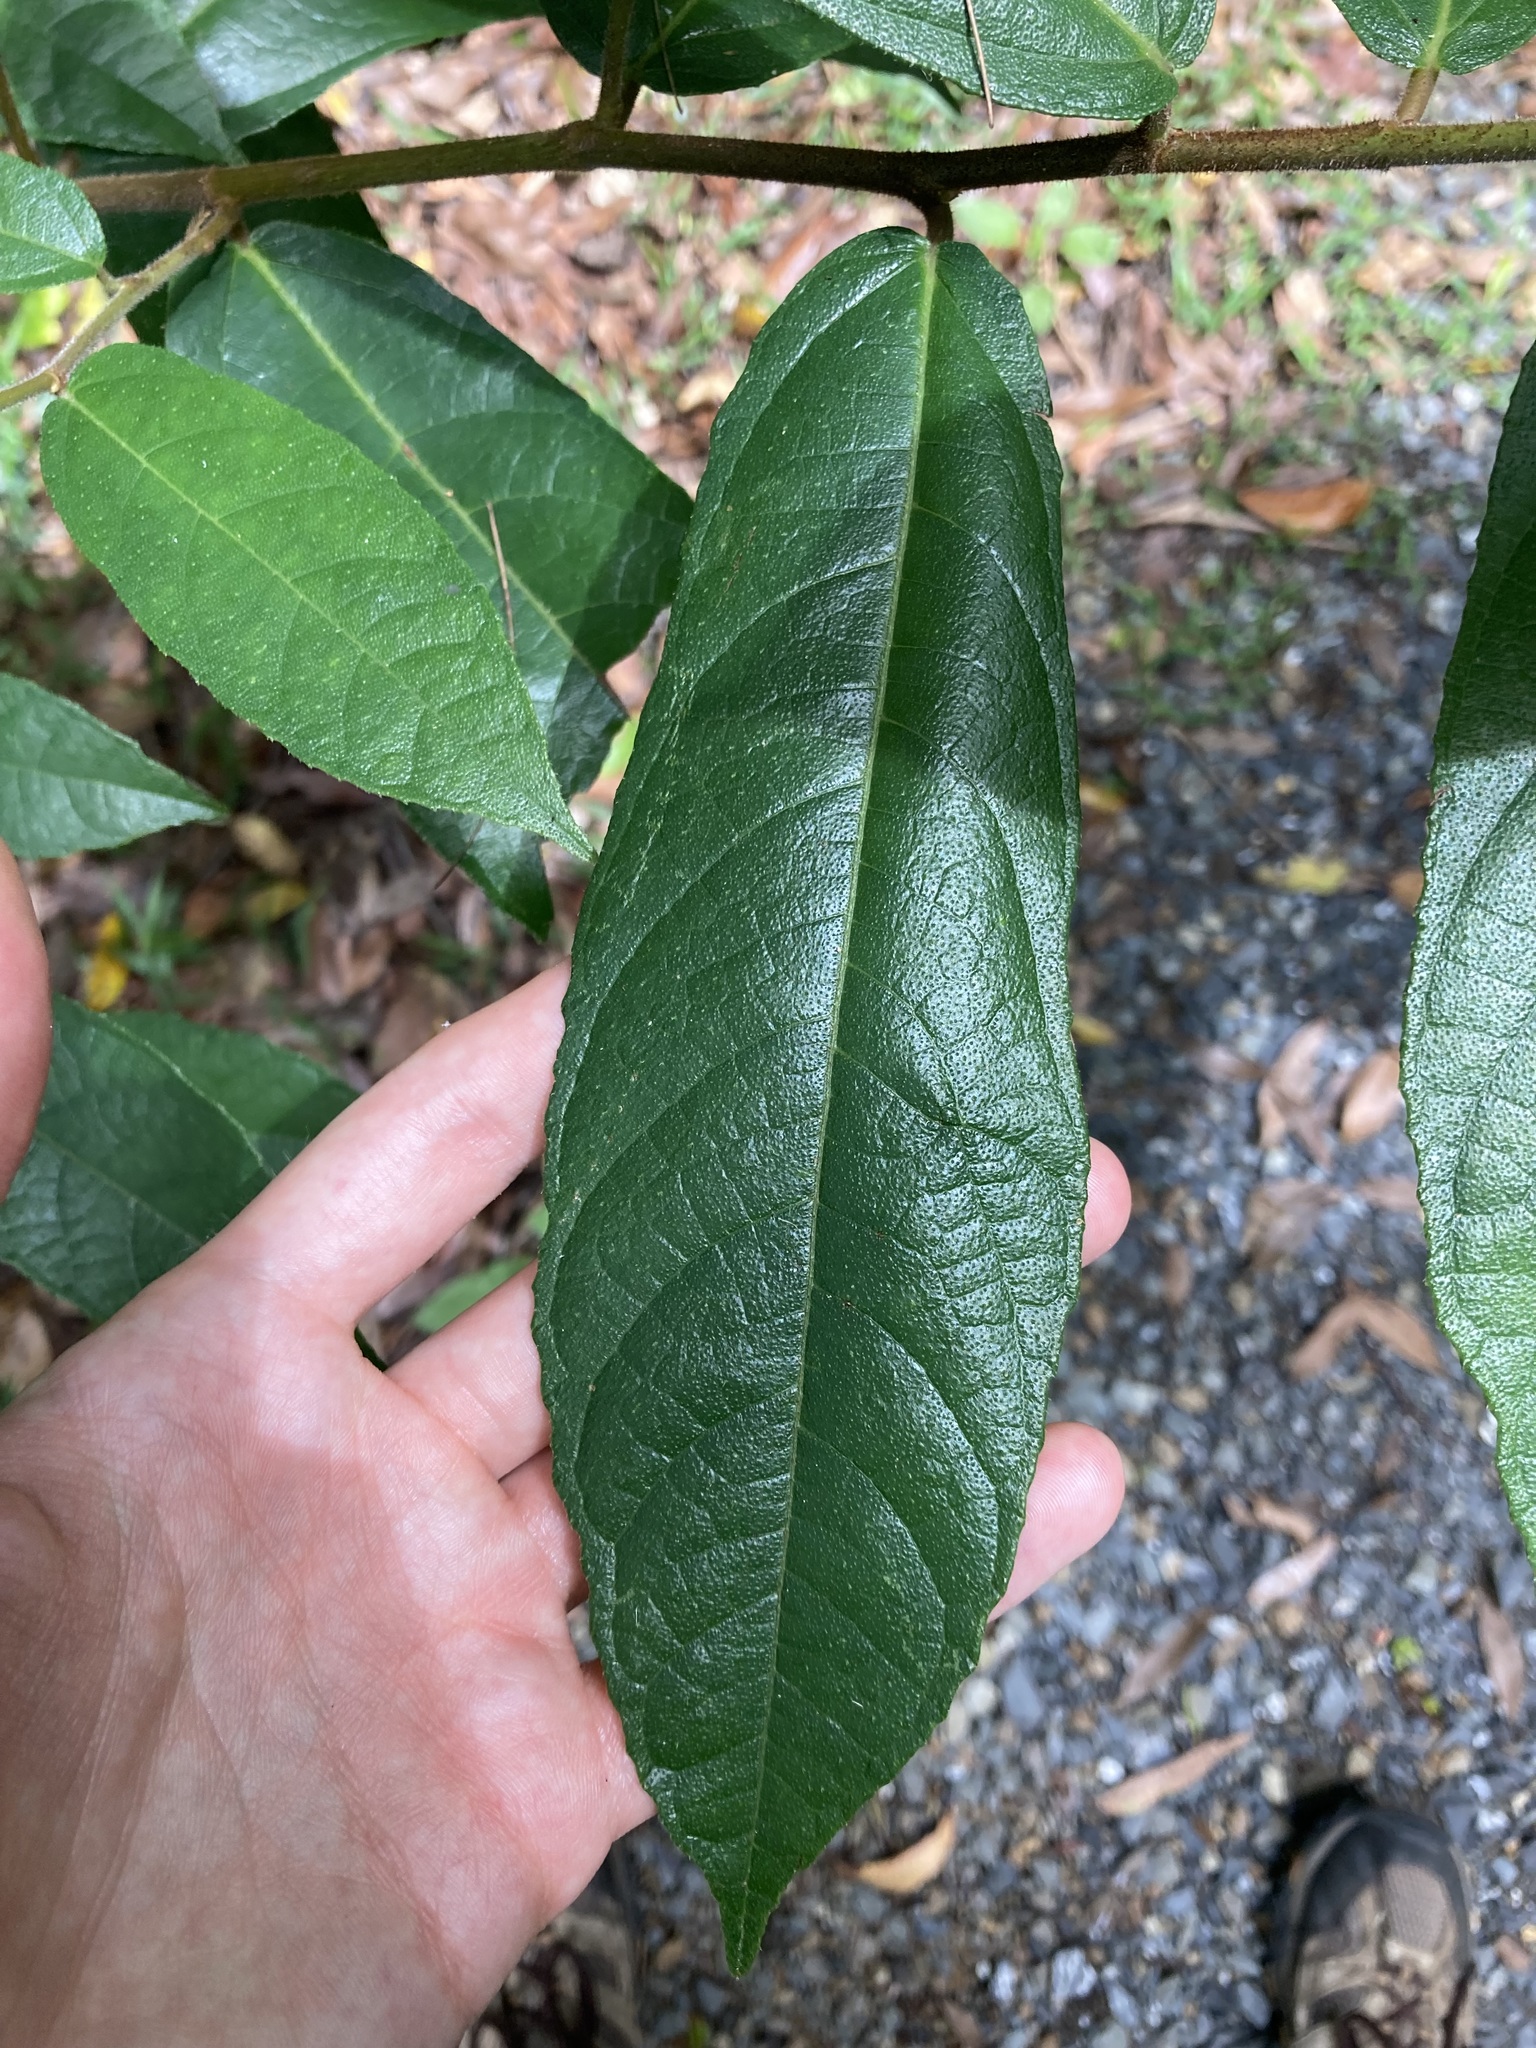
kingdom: Plantae
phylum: Tracheophyta
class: Magnoliopsida
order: Rosales
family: Moraceae
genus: Ficus
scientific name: Ficus coronata
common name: Creek sandpaper fig
